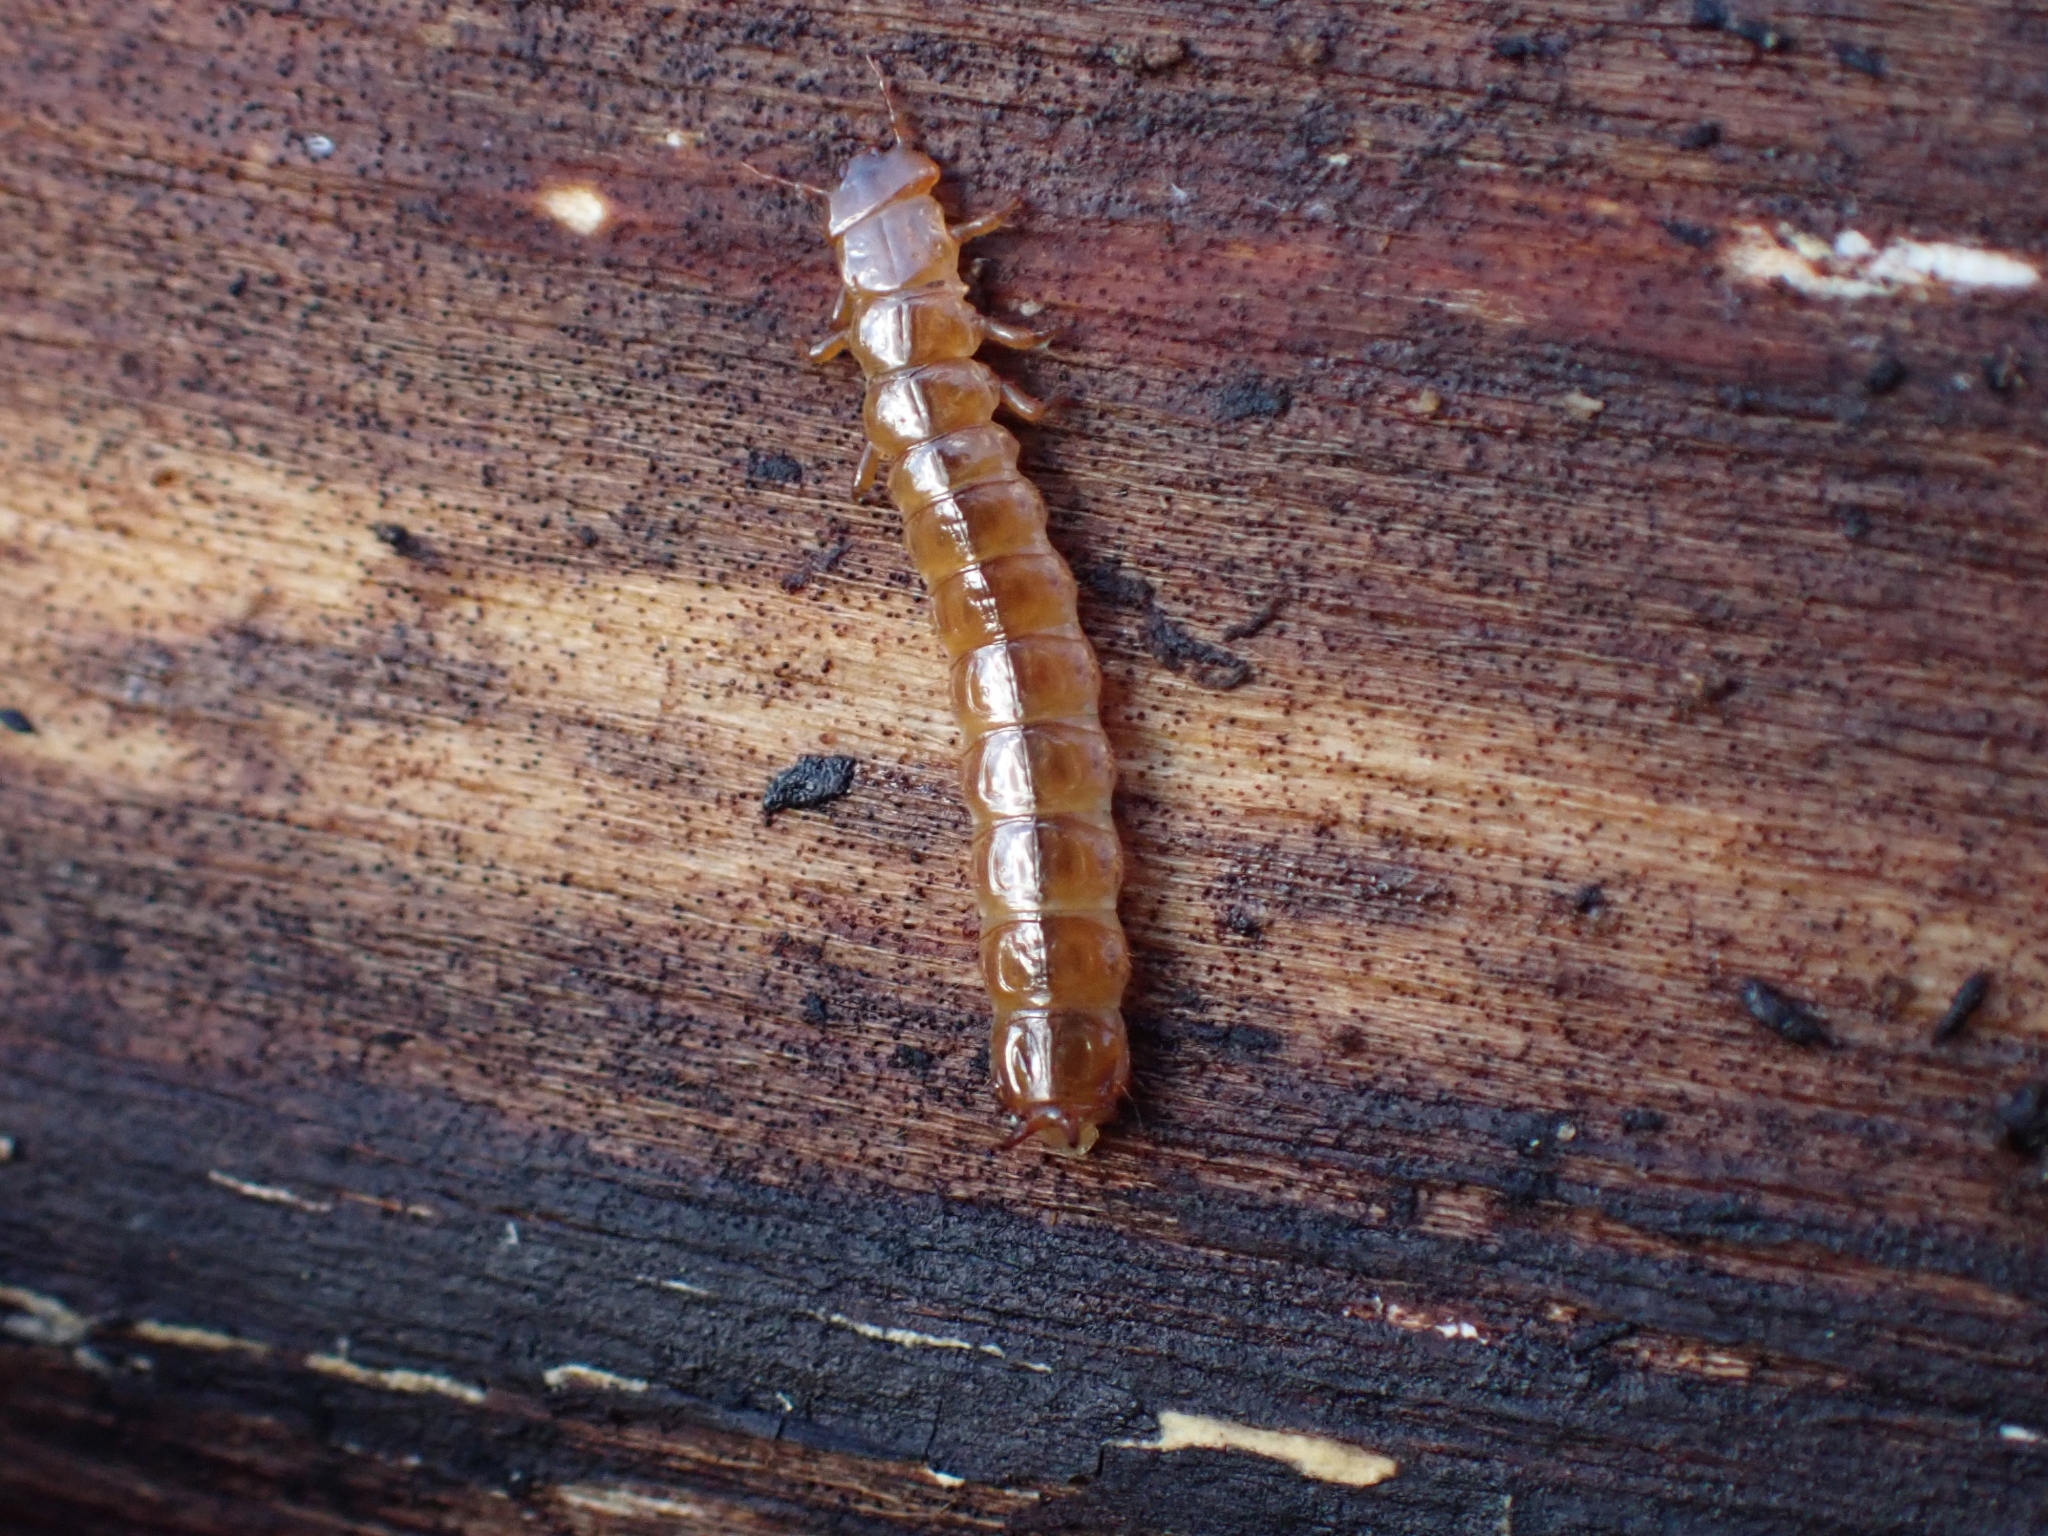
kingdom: Animalia
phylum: Arthropoda
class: Insecta
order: Coleoptera
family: Cucujidae
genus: Cucujus
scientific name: Cucujus clavipes
